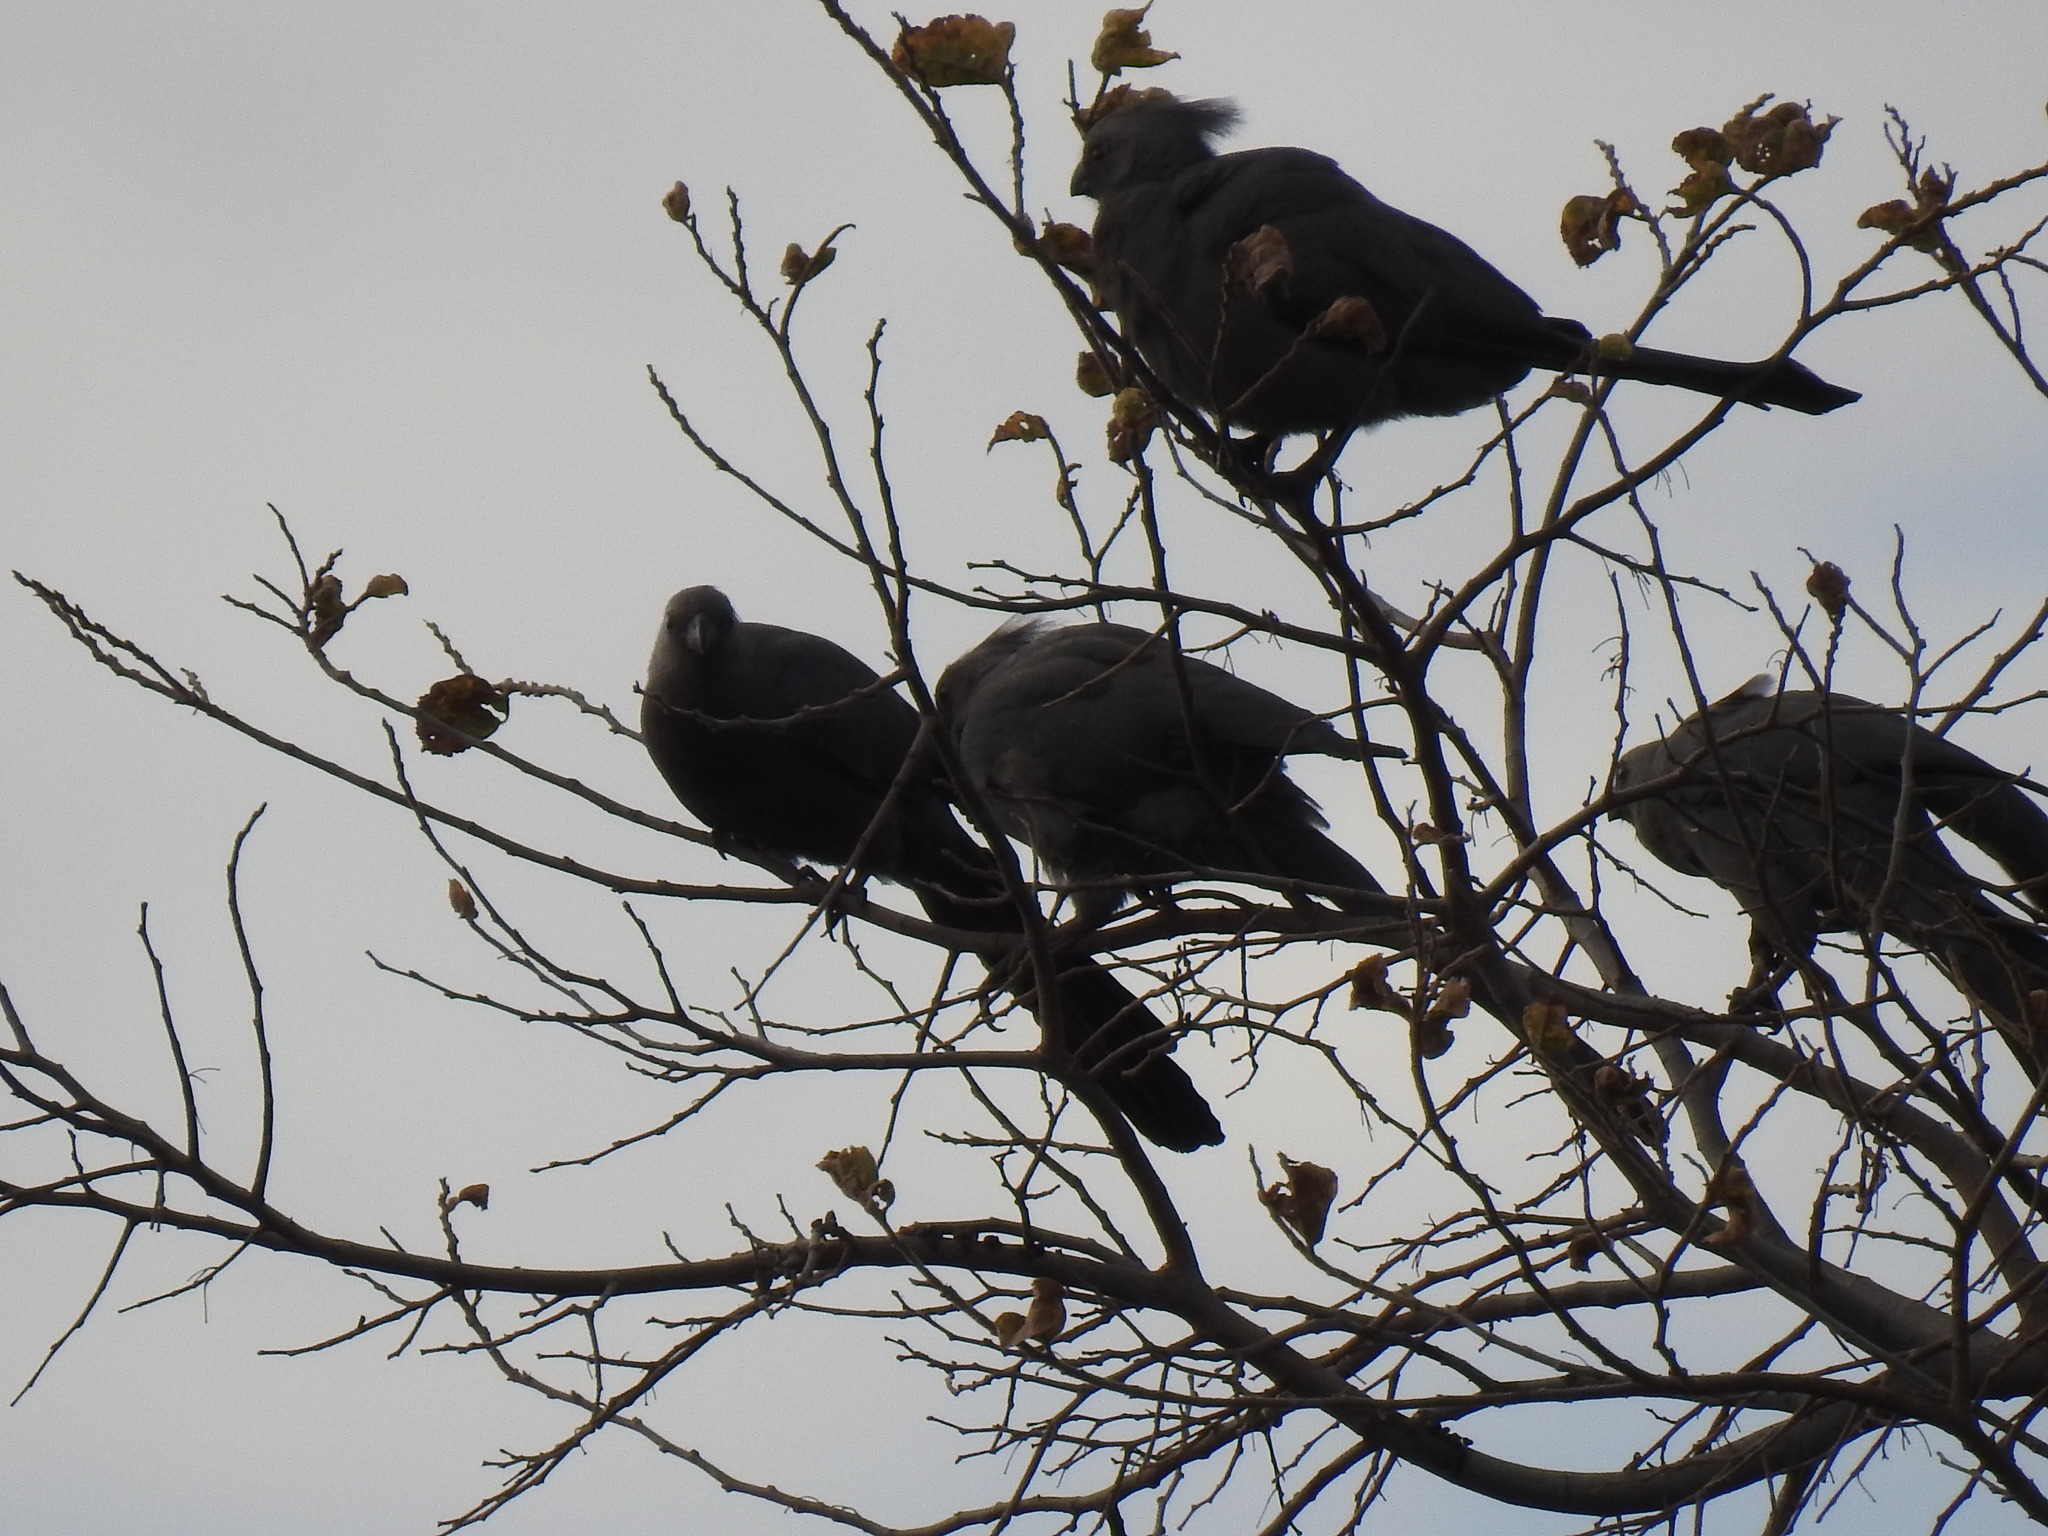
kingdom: Animalia
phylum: Chordata
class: Aves
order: Musophagiformes
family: Musophagidae
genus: Corythaixoides
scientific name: Corythaixoides concolor
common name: Grey go-away-bird
